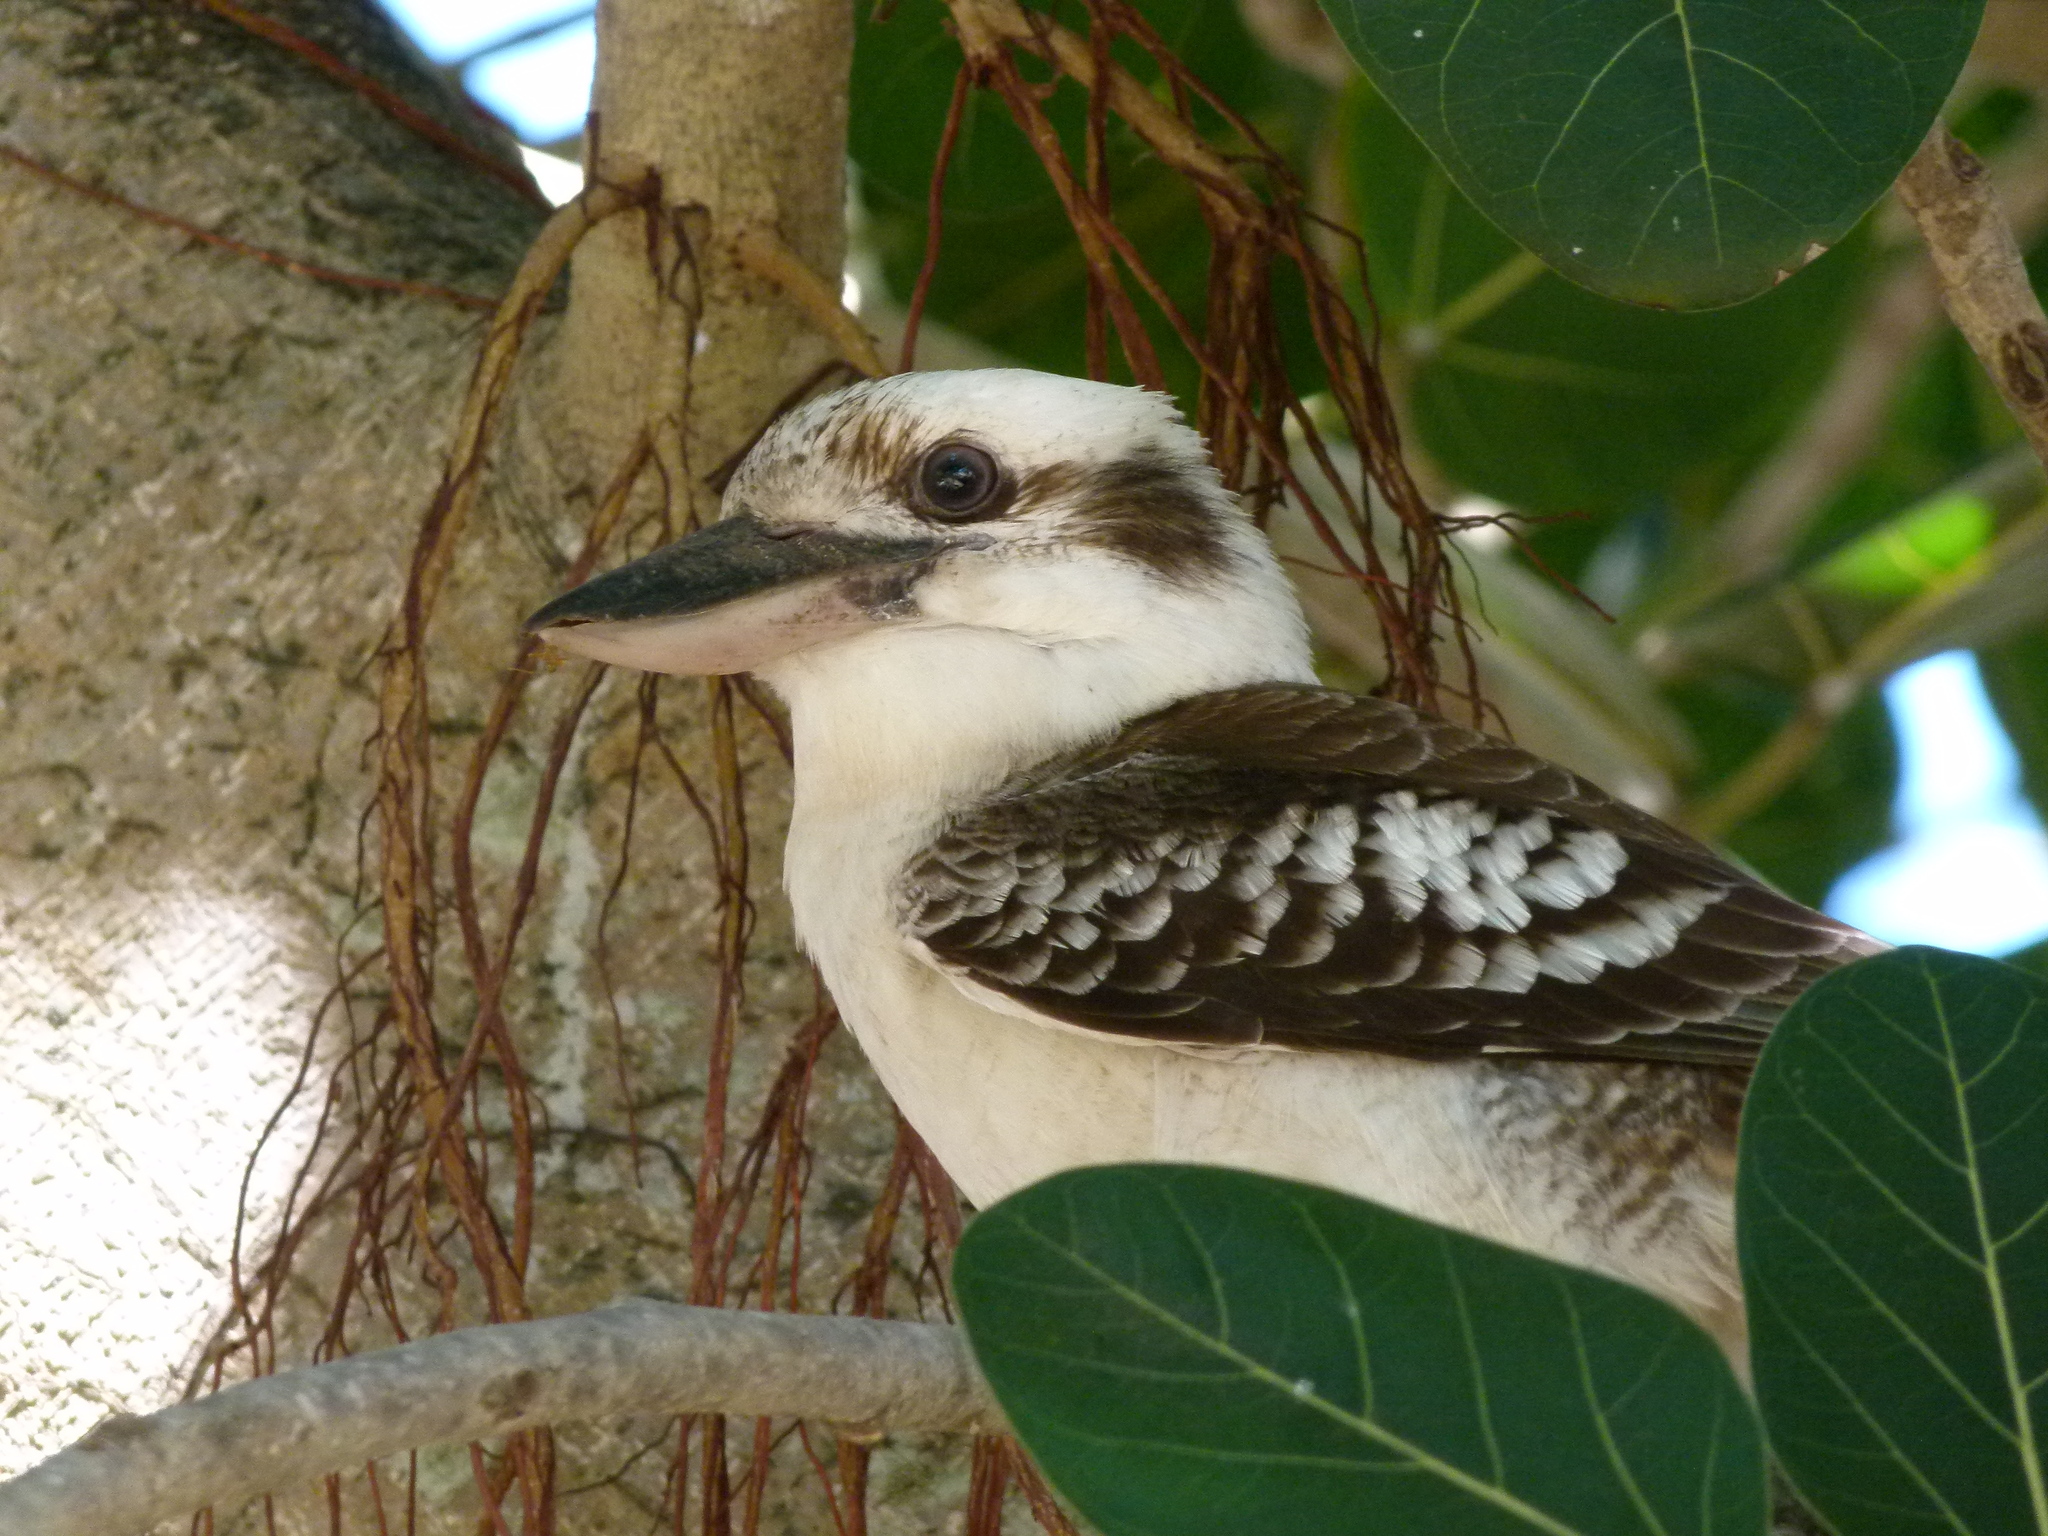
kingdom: Animalia
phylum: Chordata
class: Aves
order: Coraciiformes
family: Alcedinidae
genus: Dacelo
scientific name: Dacelo novaeguineae
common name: Laughing kookaburra
